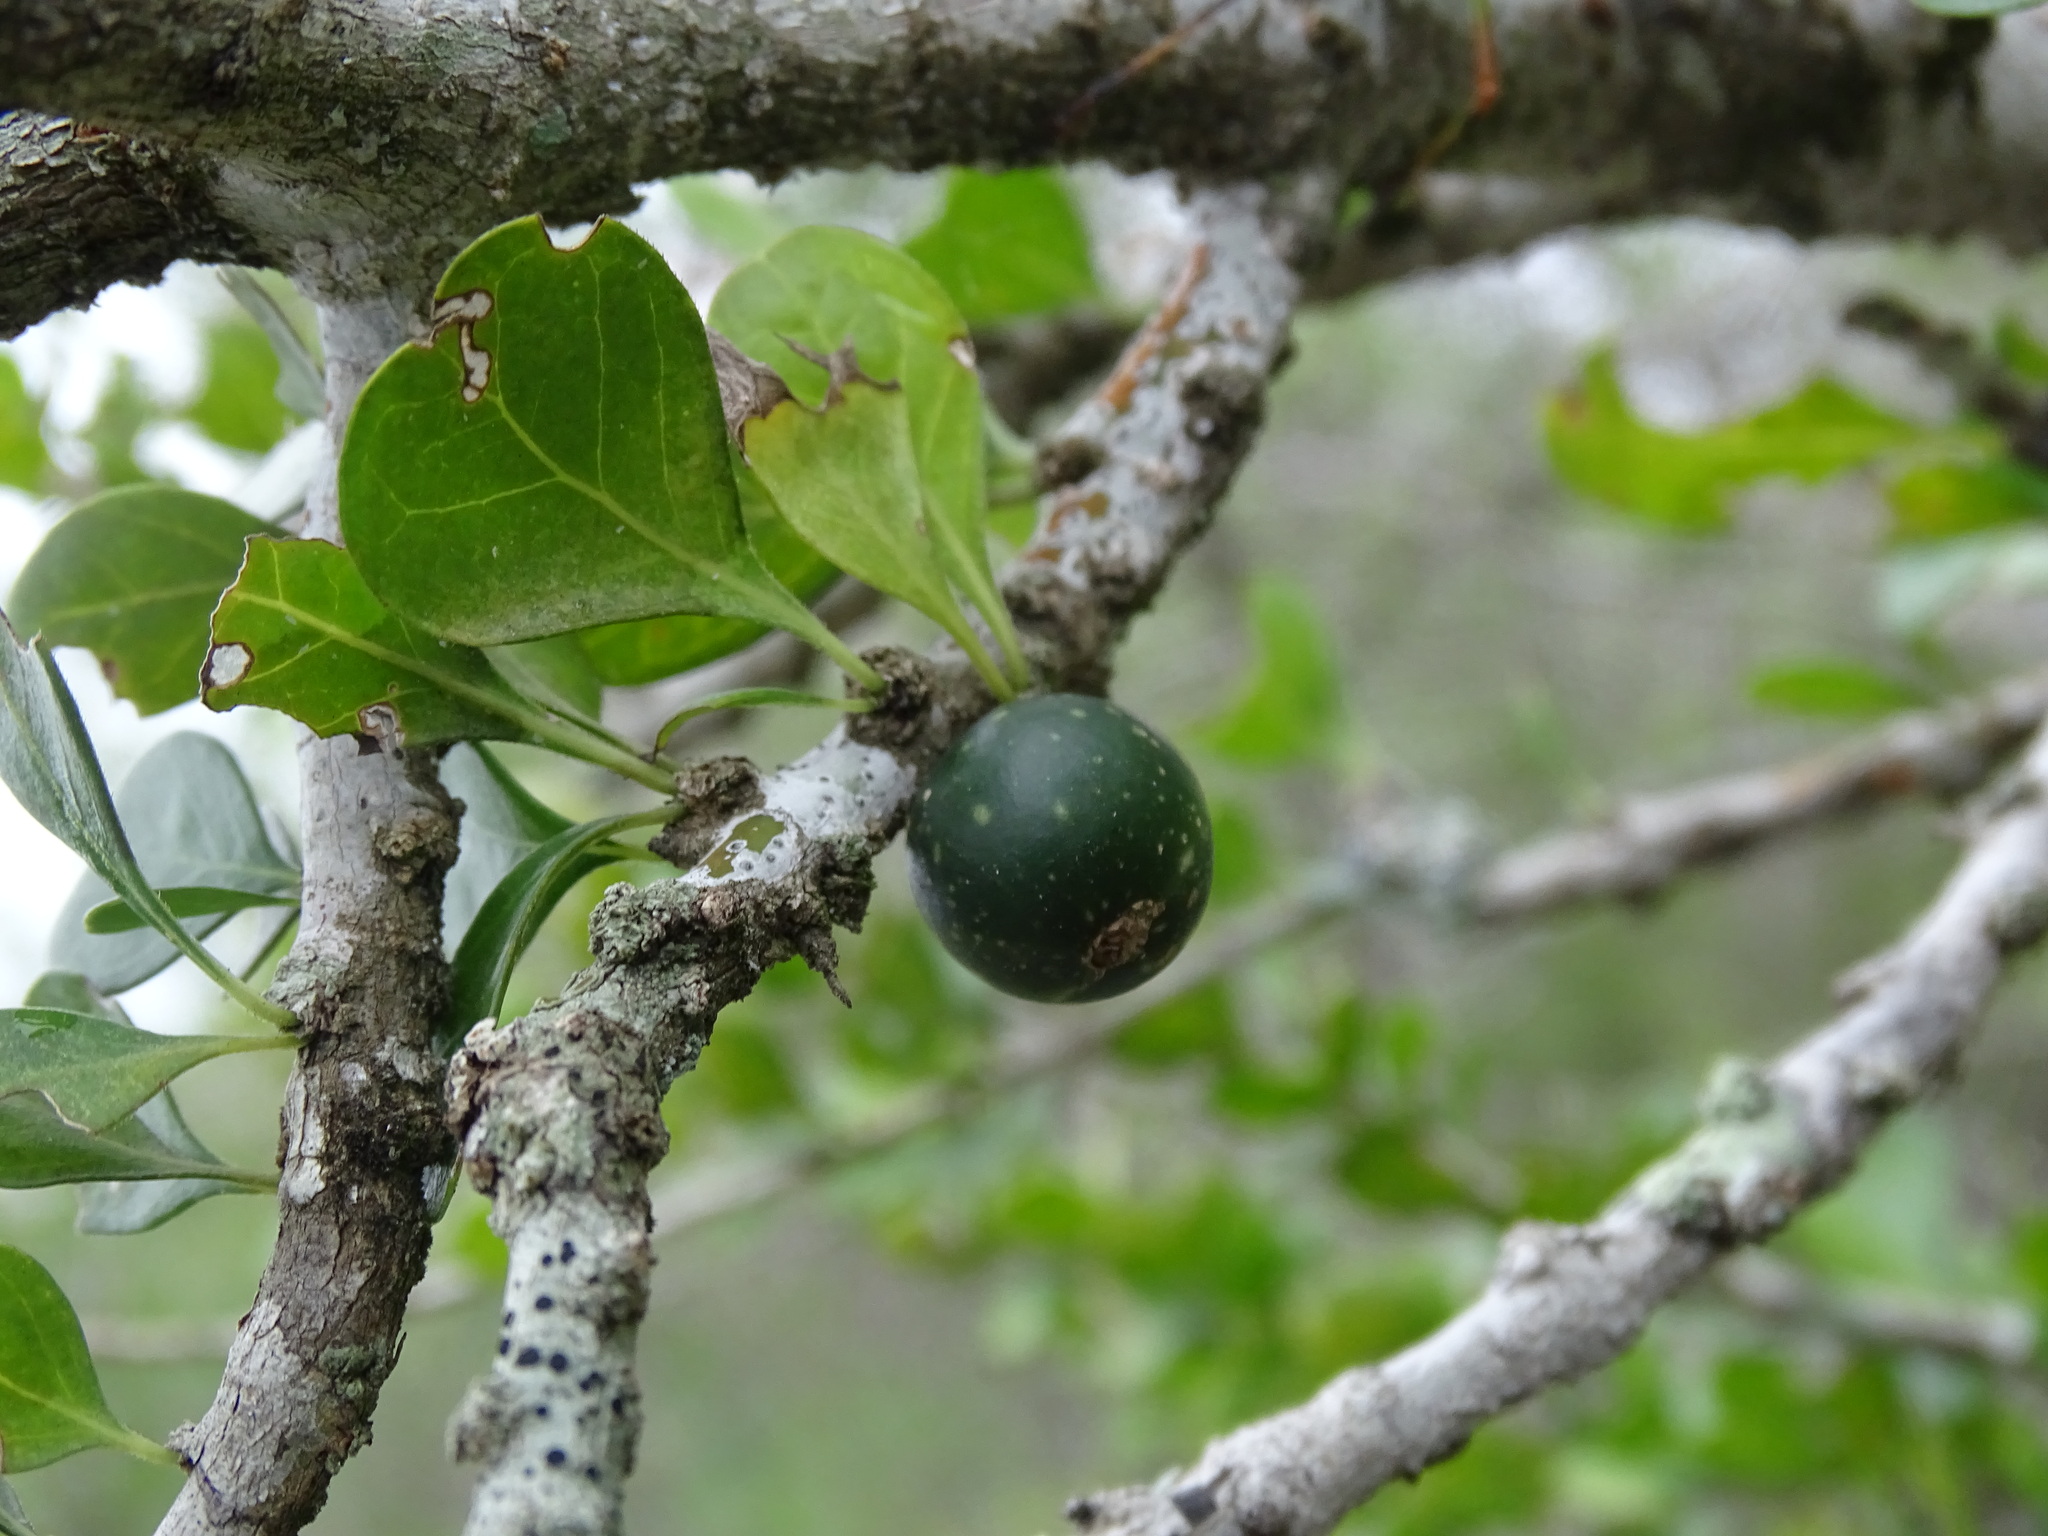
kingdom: Plantae
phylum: Tracheophyta
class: Magnoliopsida
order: Gentianales
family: Rubiaceae
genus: Randia
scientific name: Randia obcordata
